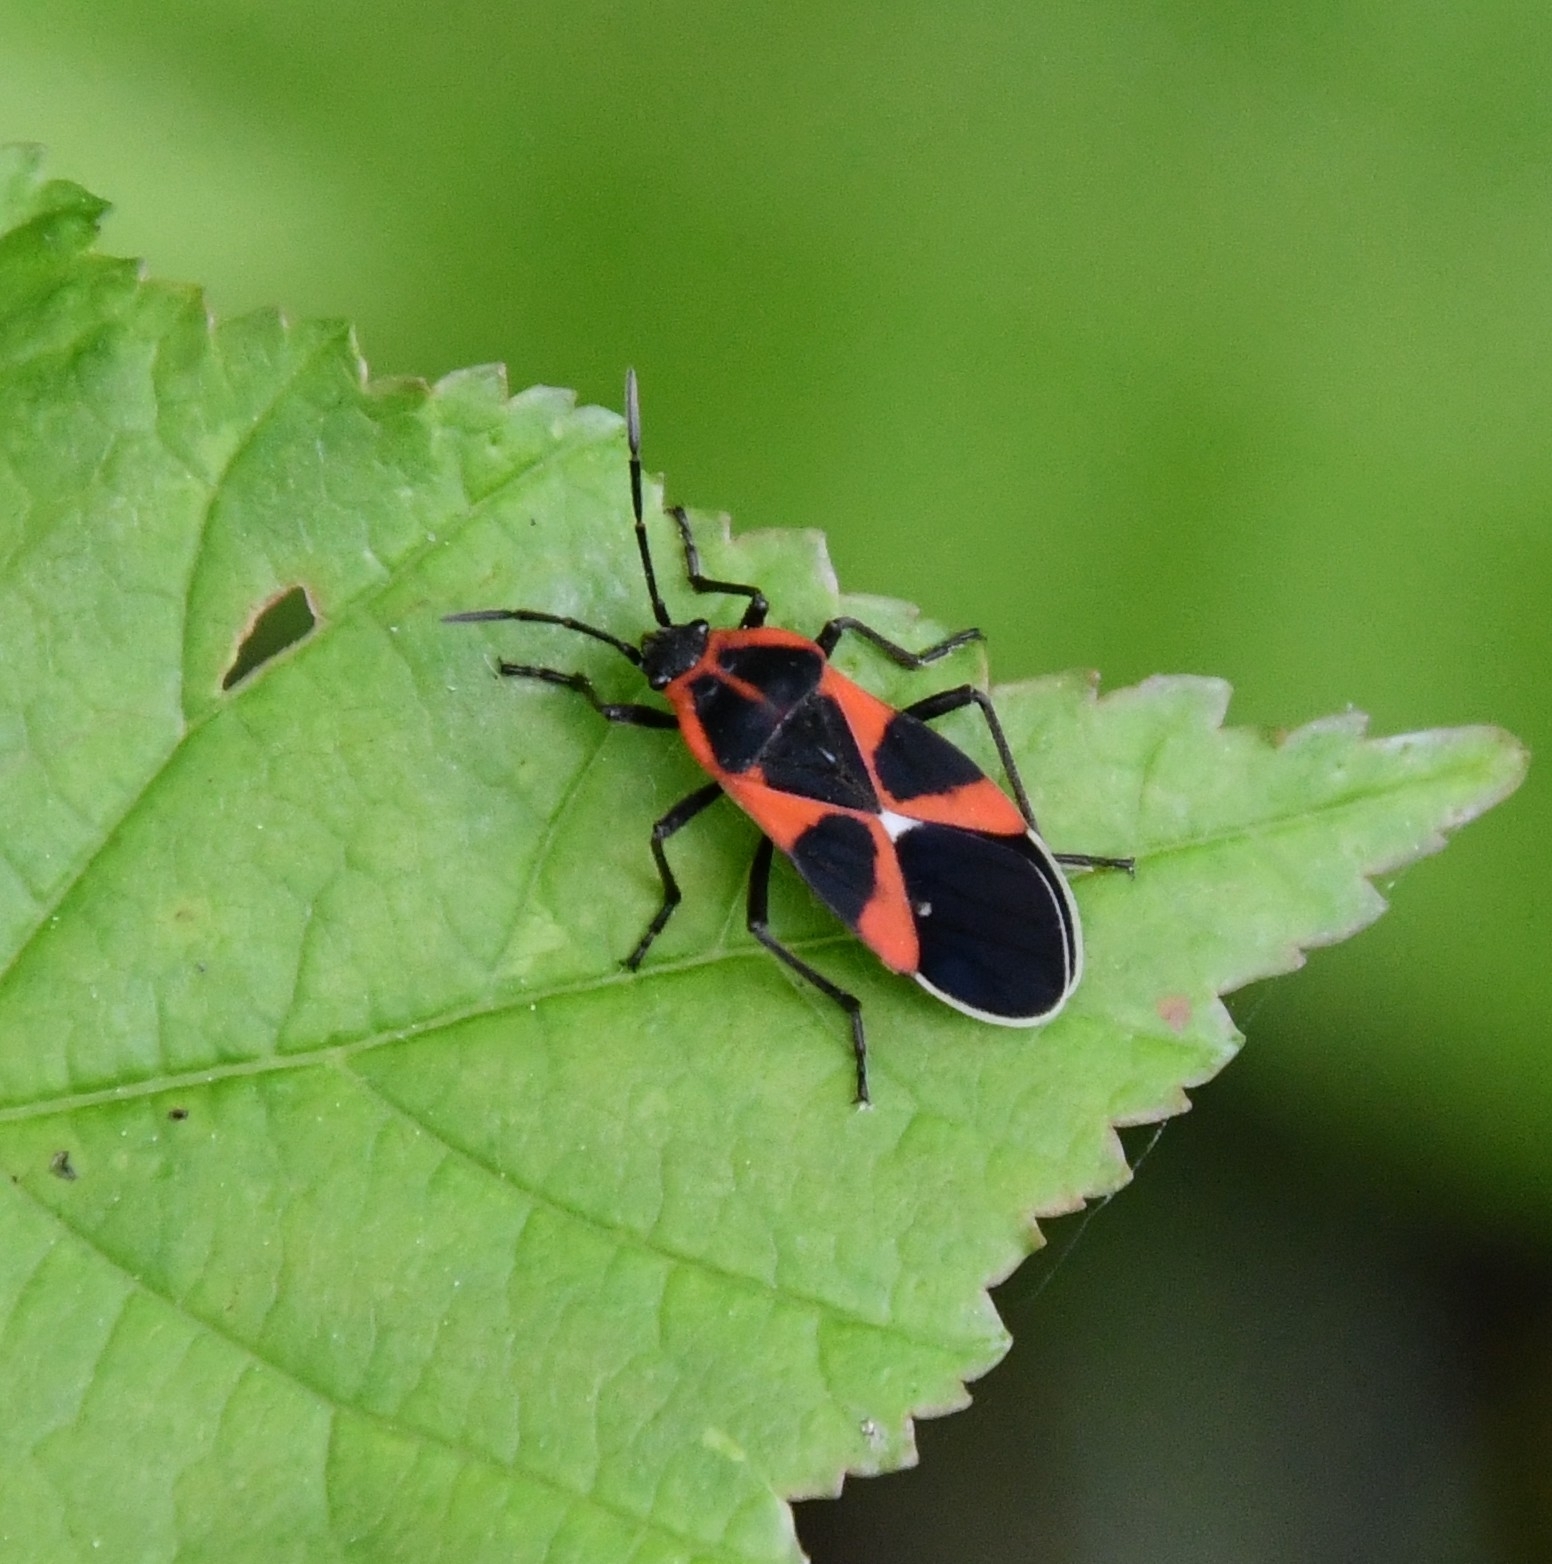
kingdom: Animalia
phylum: Arthropoda
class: Insecta
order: Hemiptera
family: Lygaeidae
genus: Tropidothorax
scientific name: Tropidothorax leucopterus
